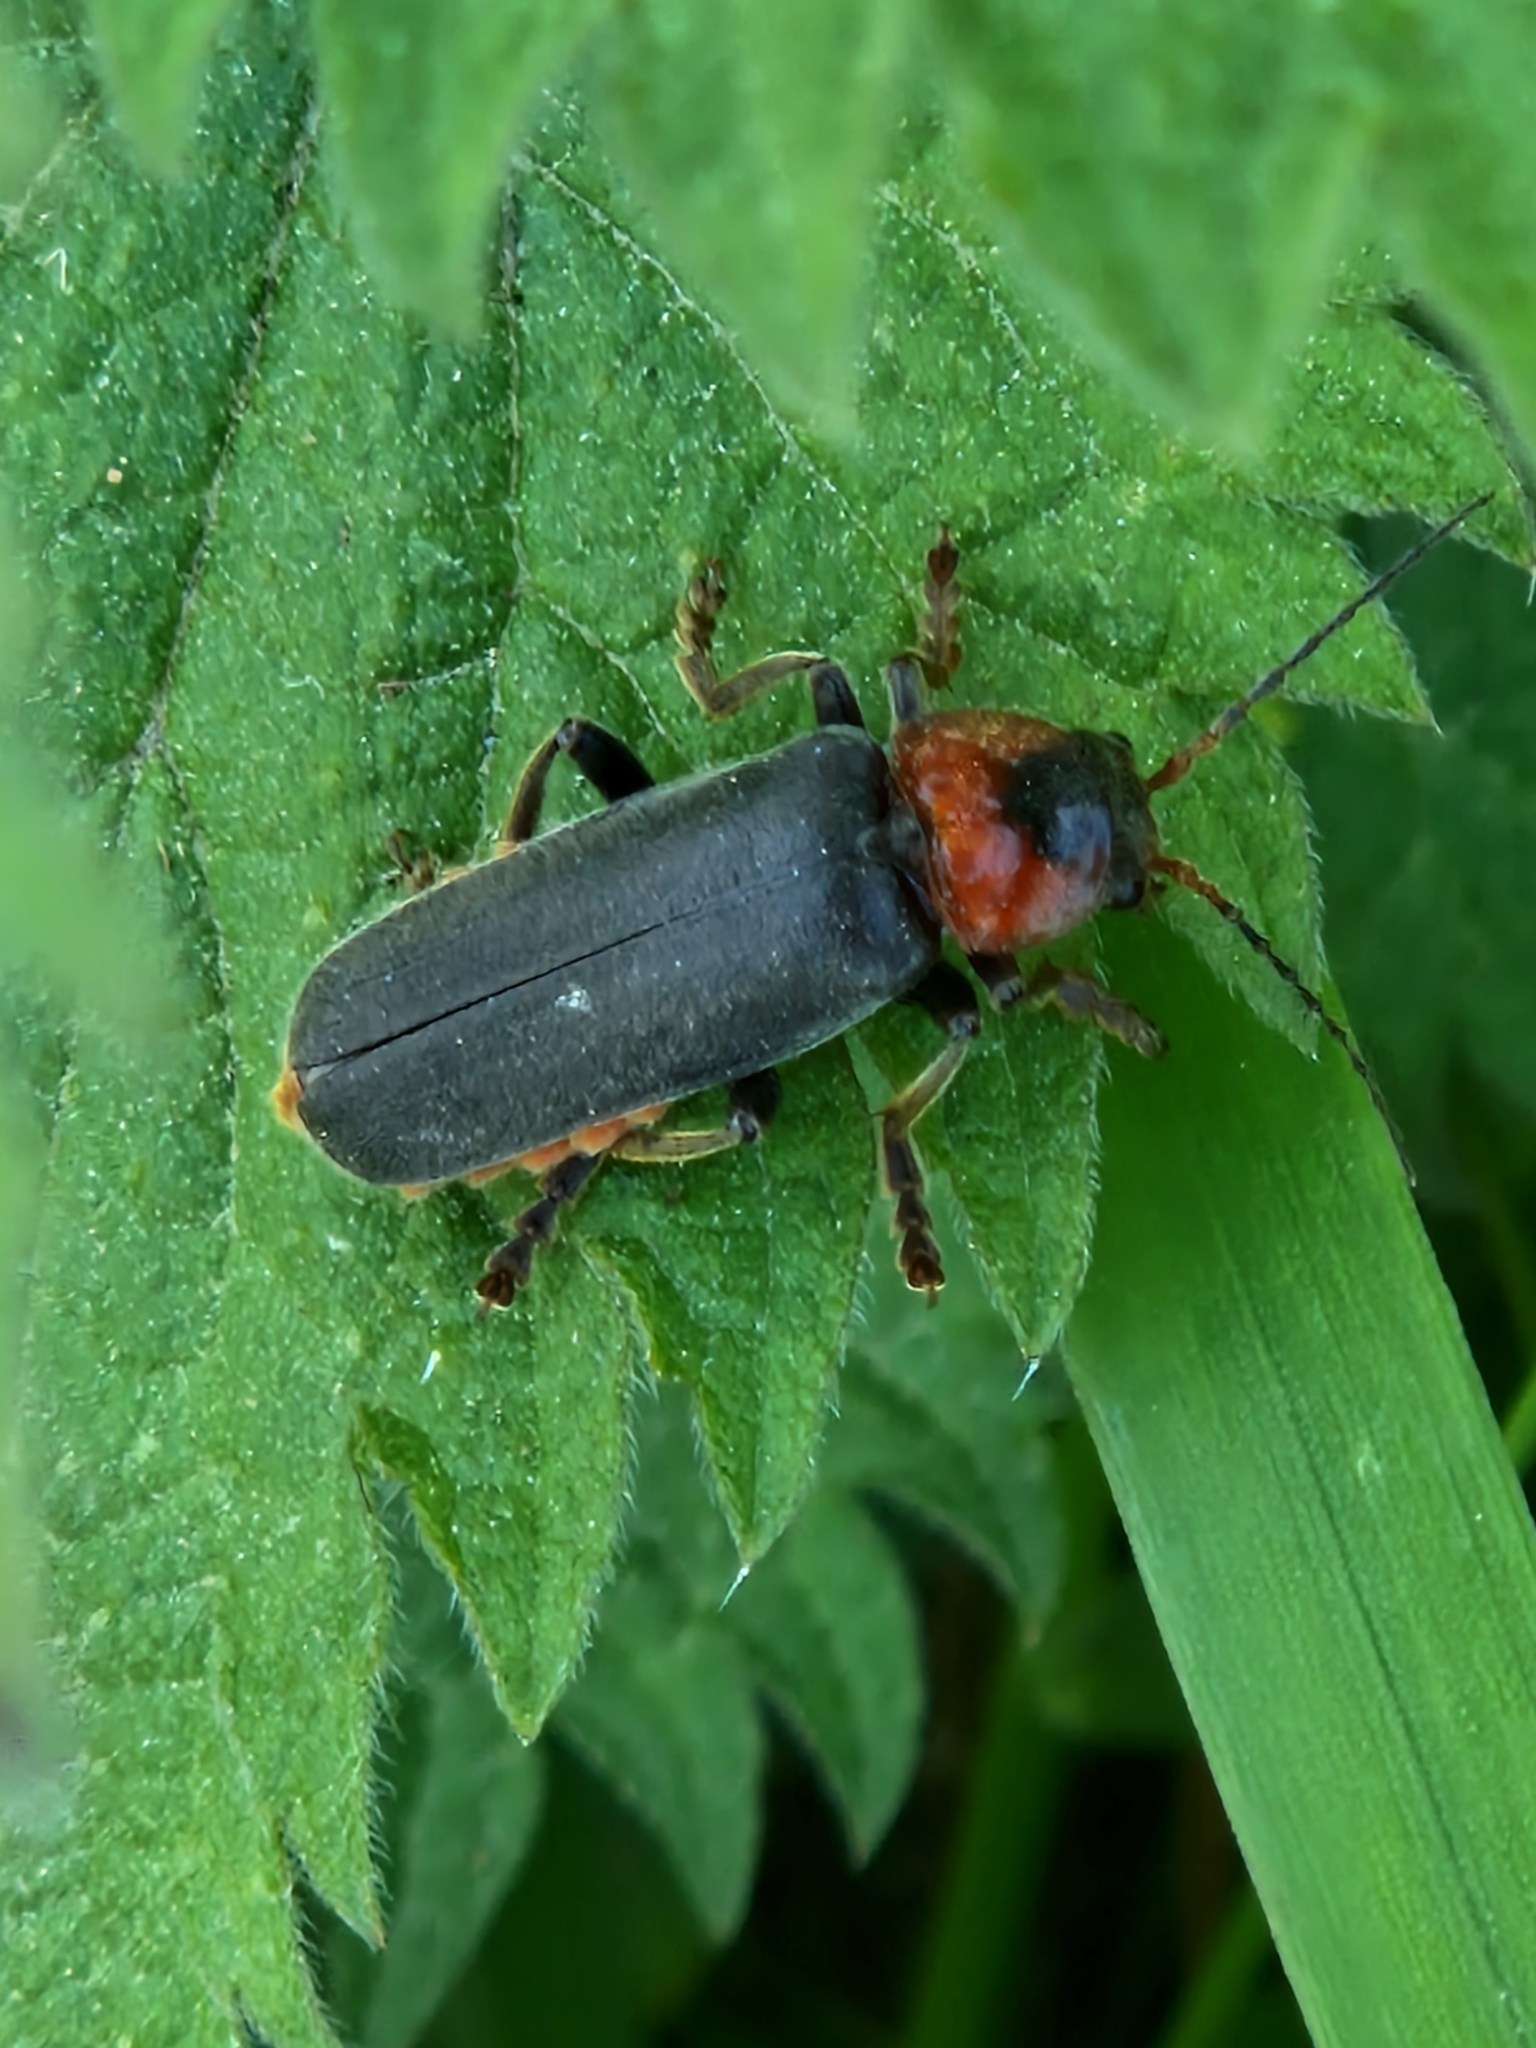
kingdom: Animalia
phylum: Arthropoda
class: Insecta
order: Coleoptera
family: Cantharidae
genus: Cantharis
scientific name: Cantharis fusca
